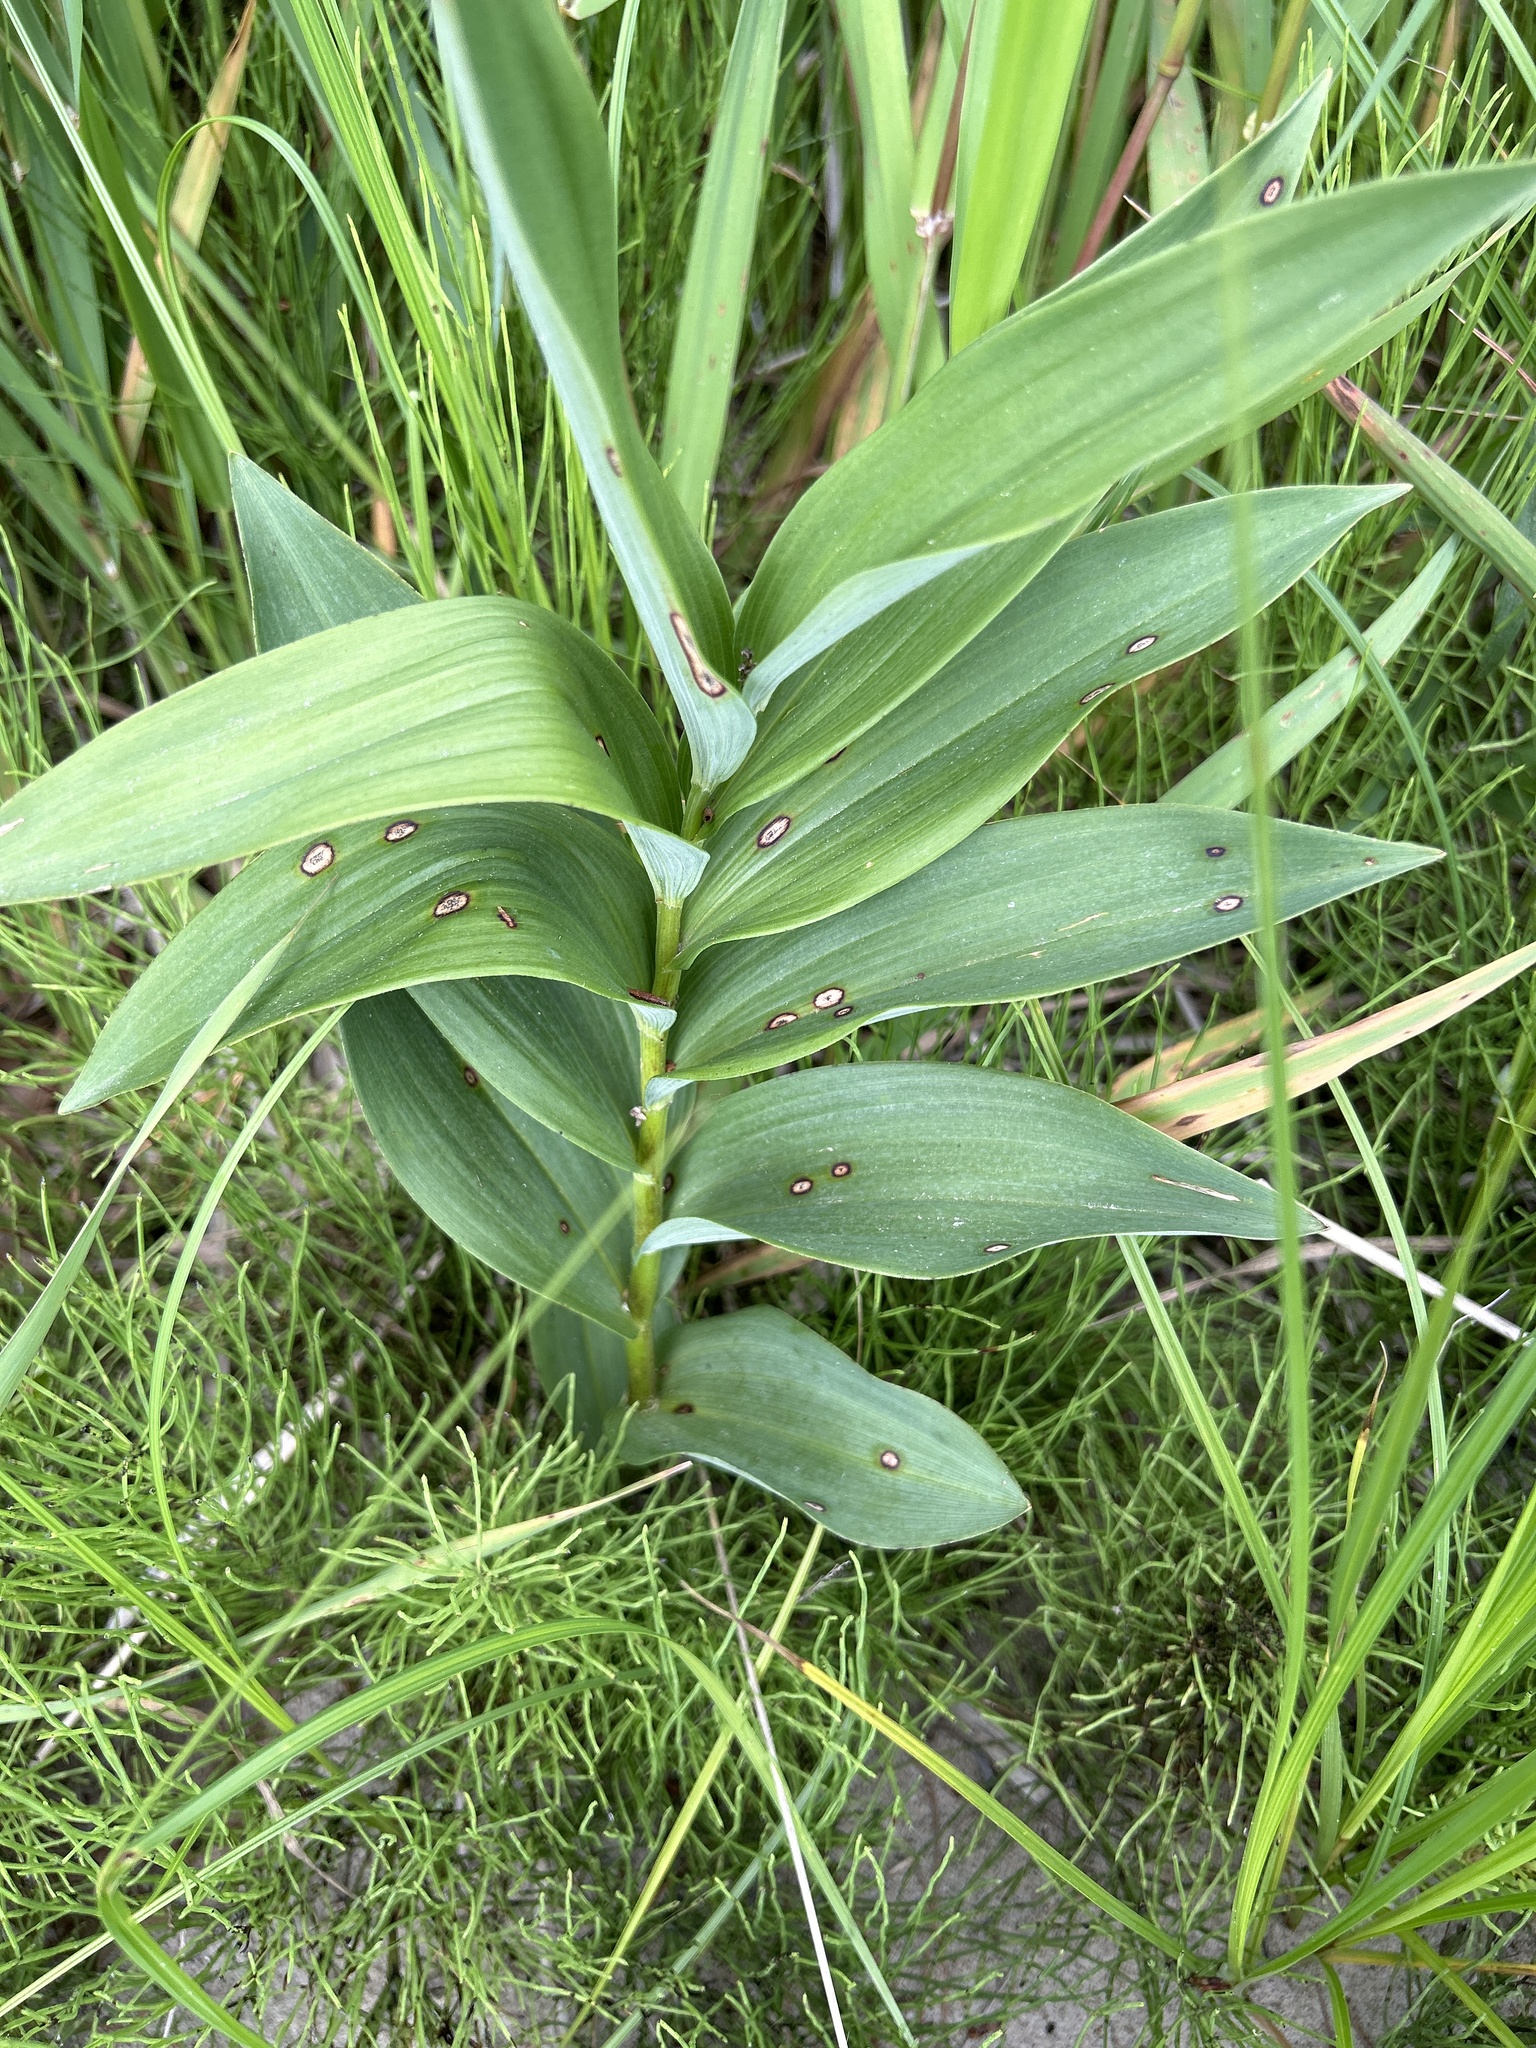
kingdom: Plantae
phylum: Tracheophyta
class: Liliopsida
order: Asparagales
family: Asparagaceae
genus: Maianthemum
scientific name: Maianthemum stellatum
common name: Little false solomon's seal
